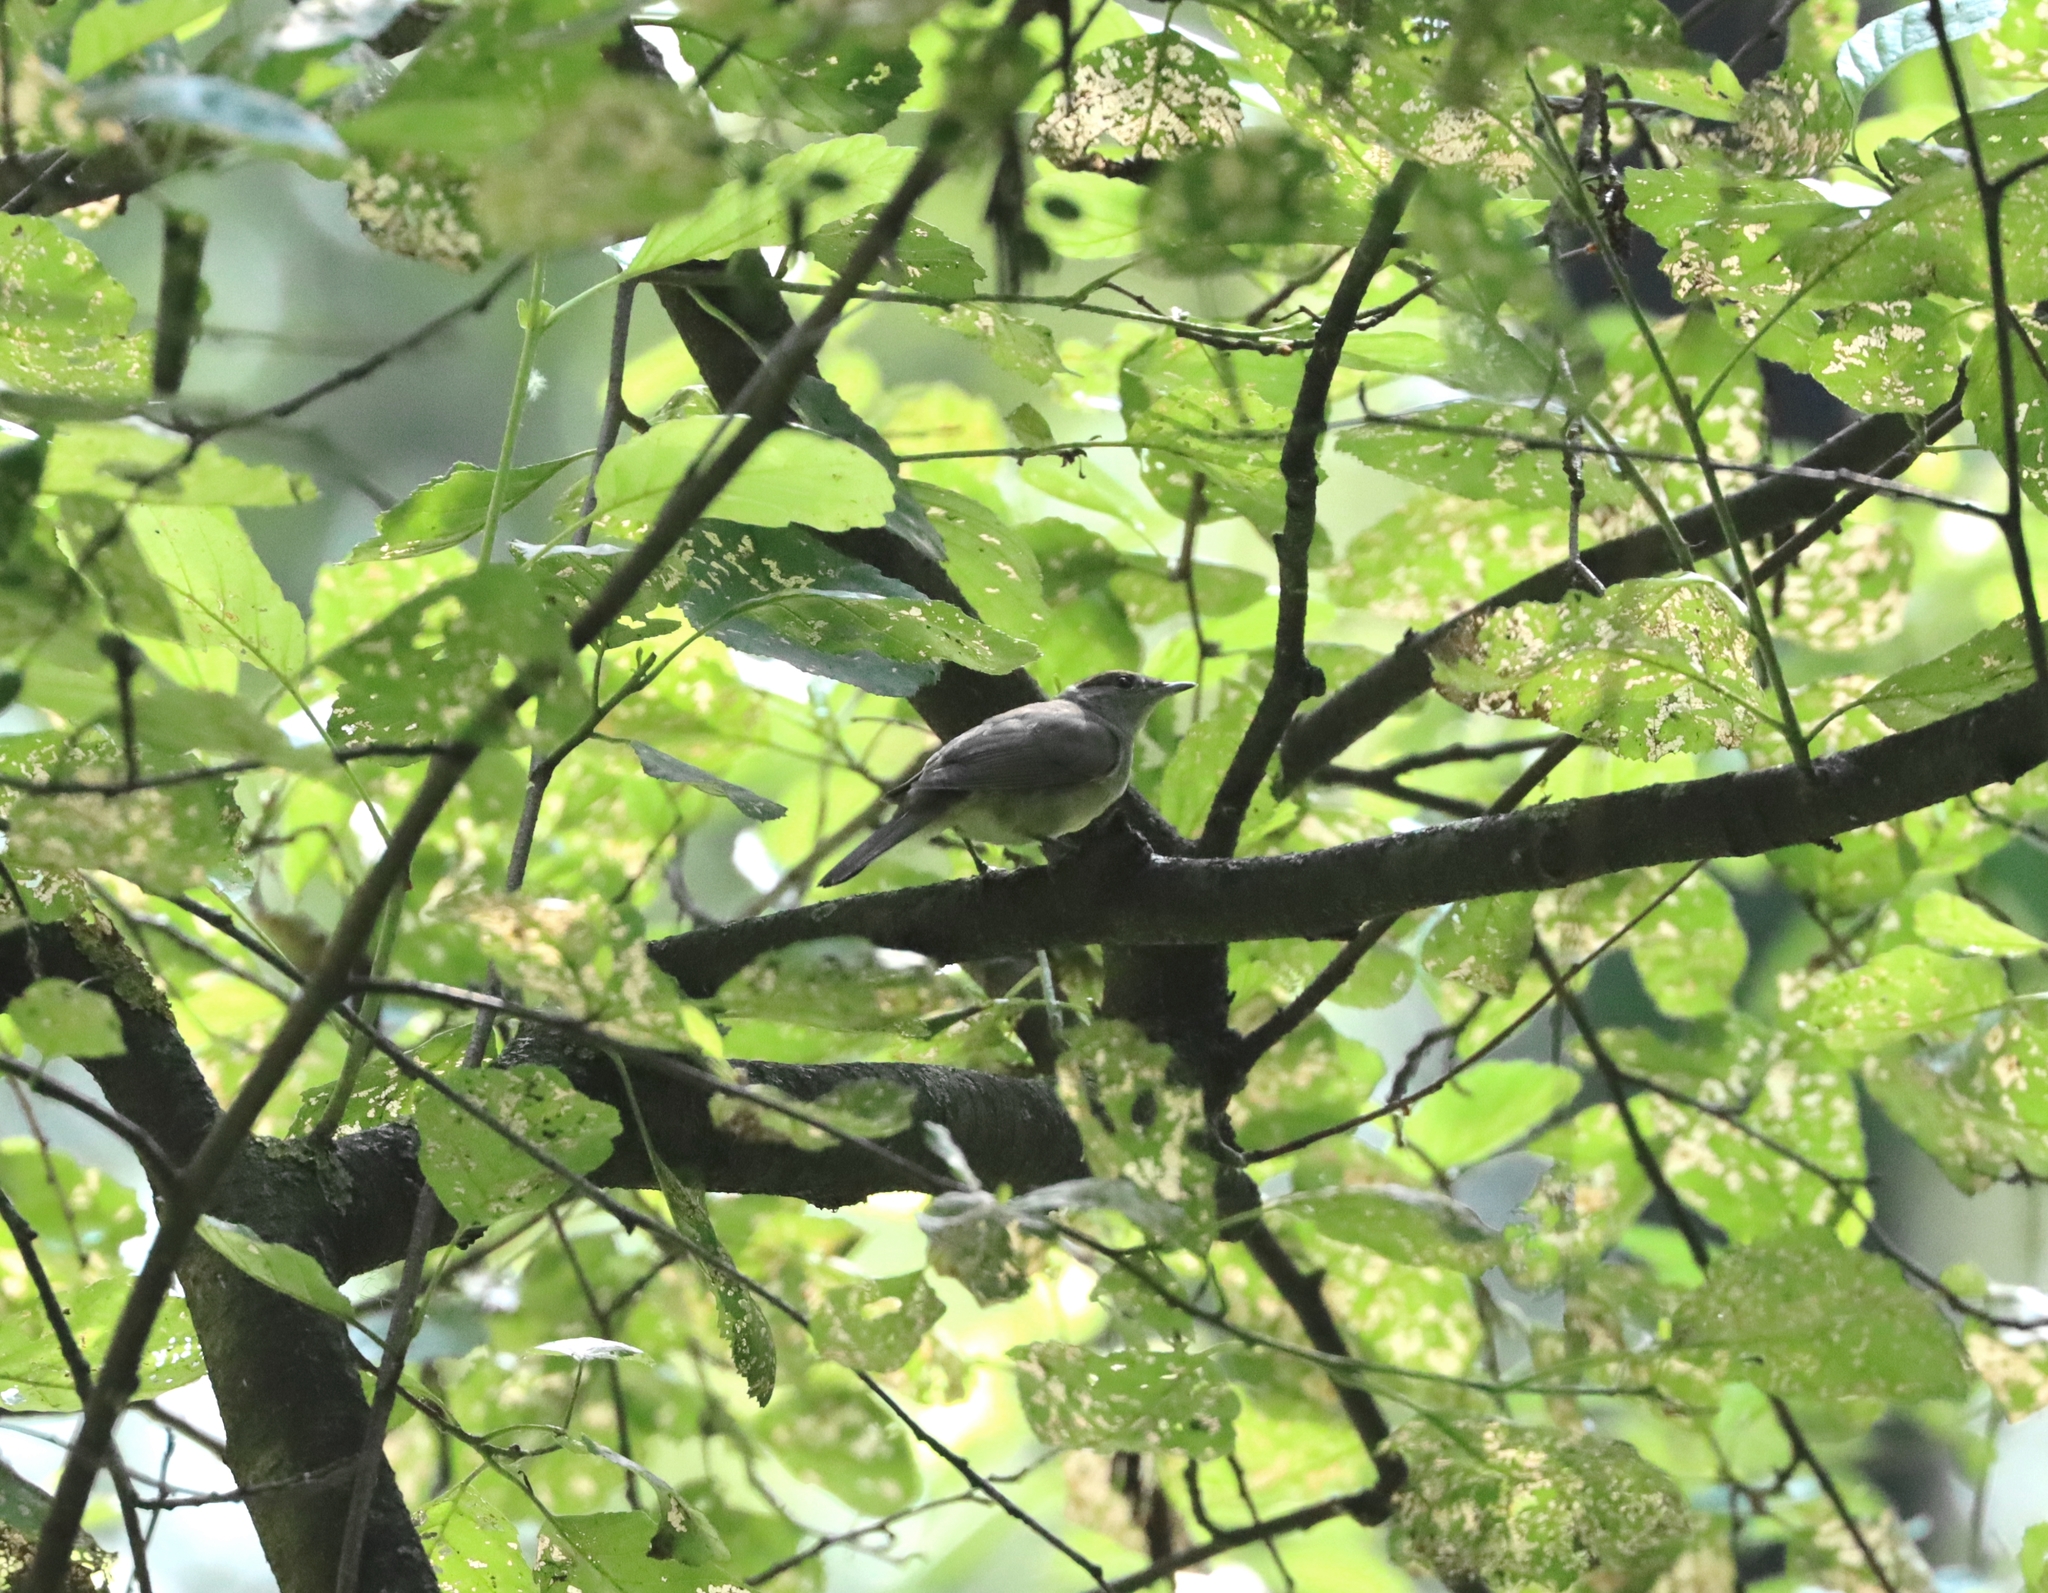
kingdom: Animalia
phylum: Chordata
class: Aves
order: Passeriformes
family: Sylviidae
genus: Sylvia
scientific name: Sylvia atricapilla
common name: Eurasian blackcap
